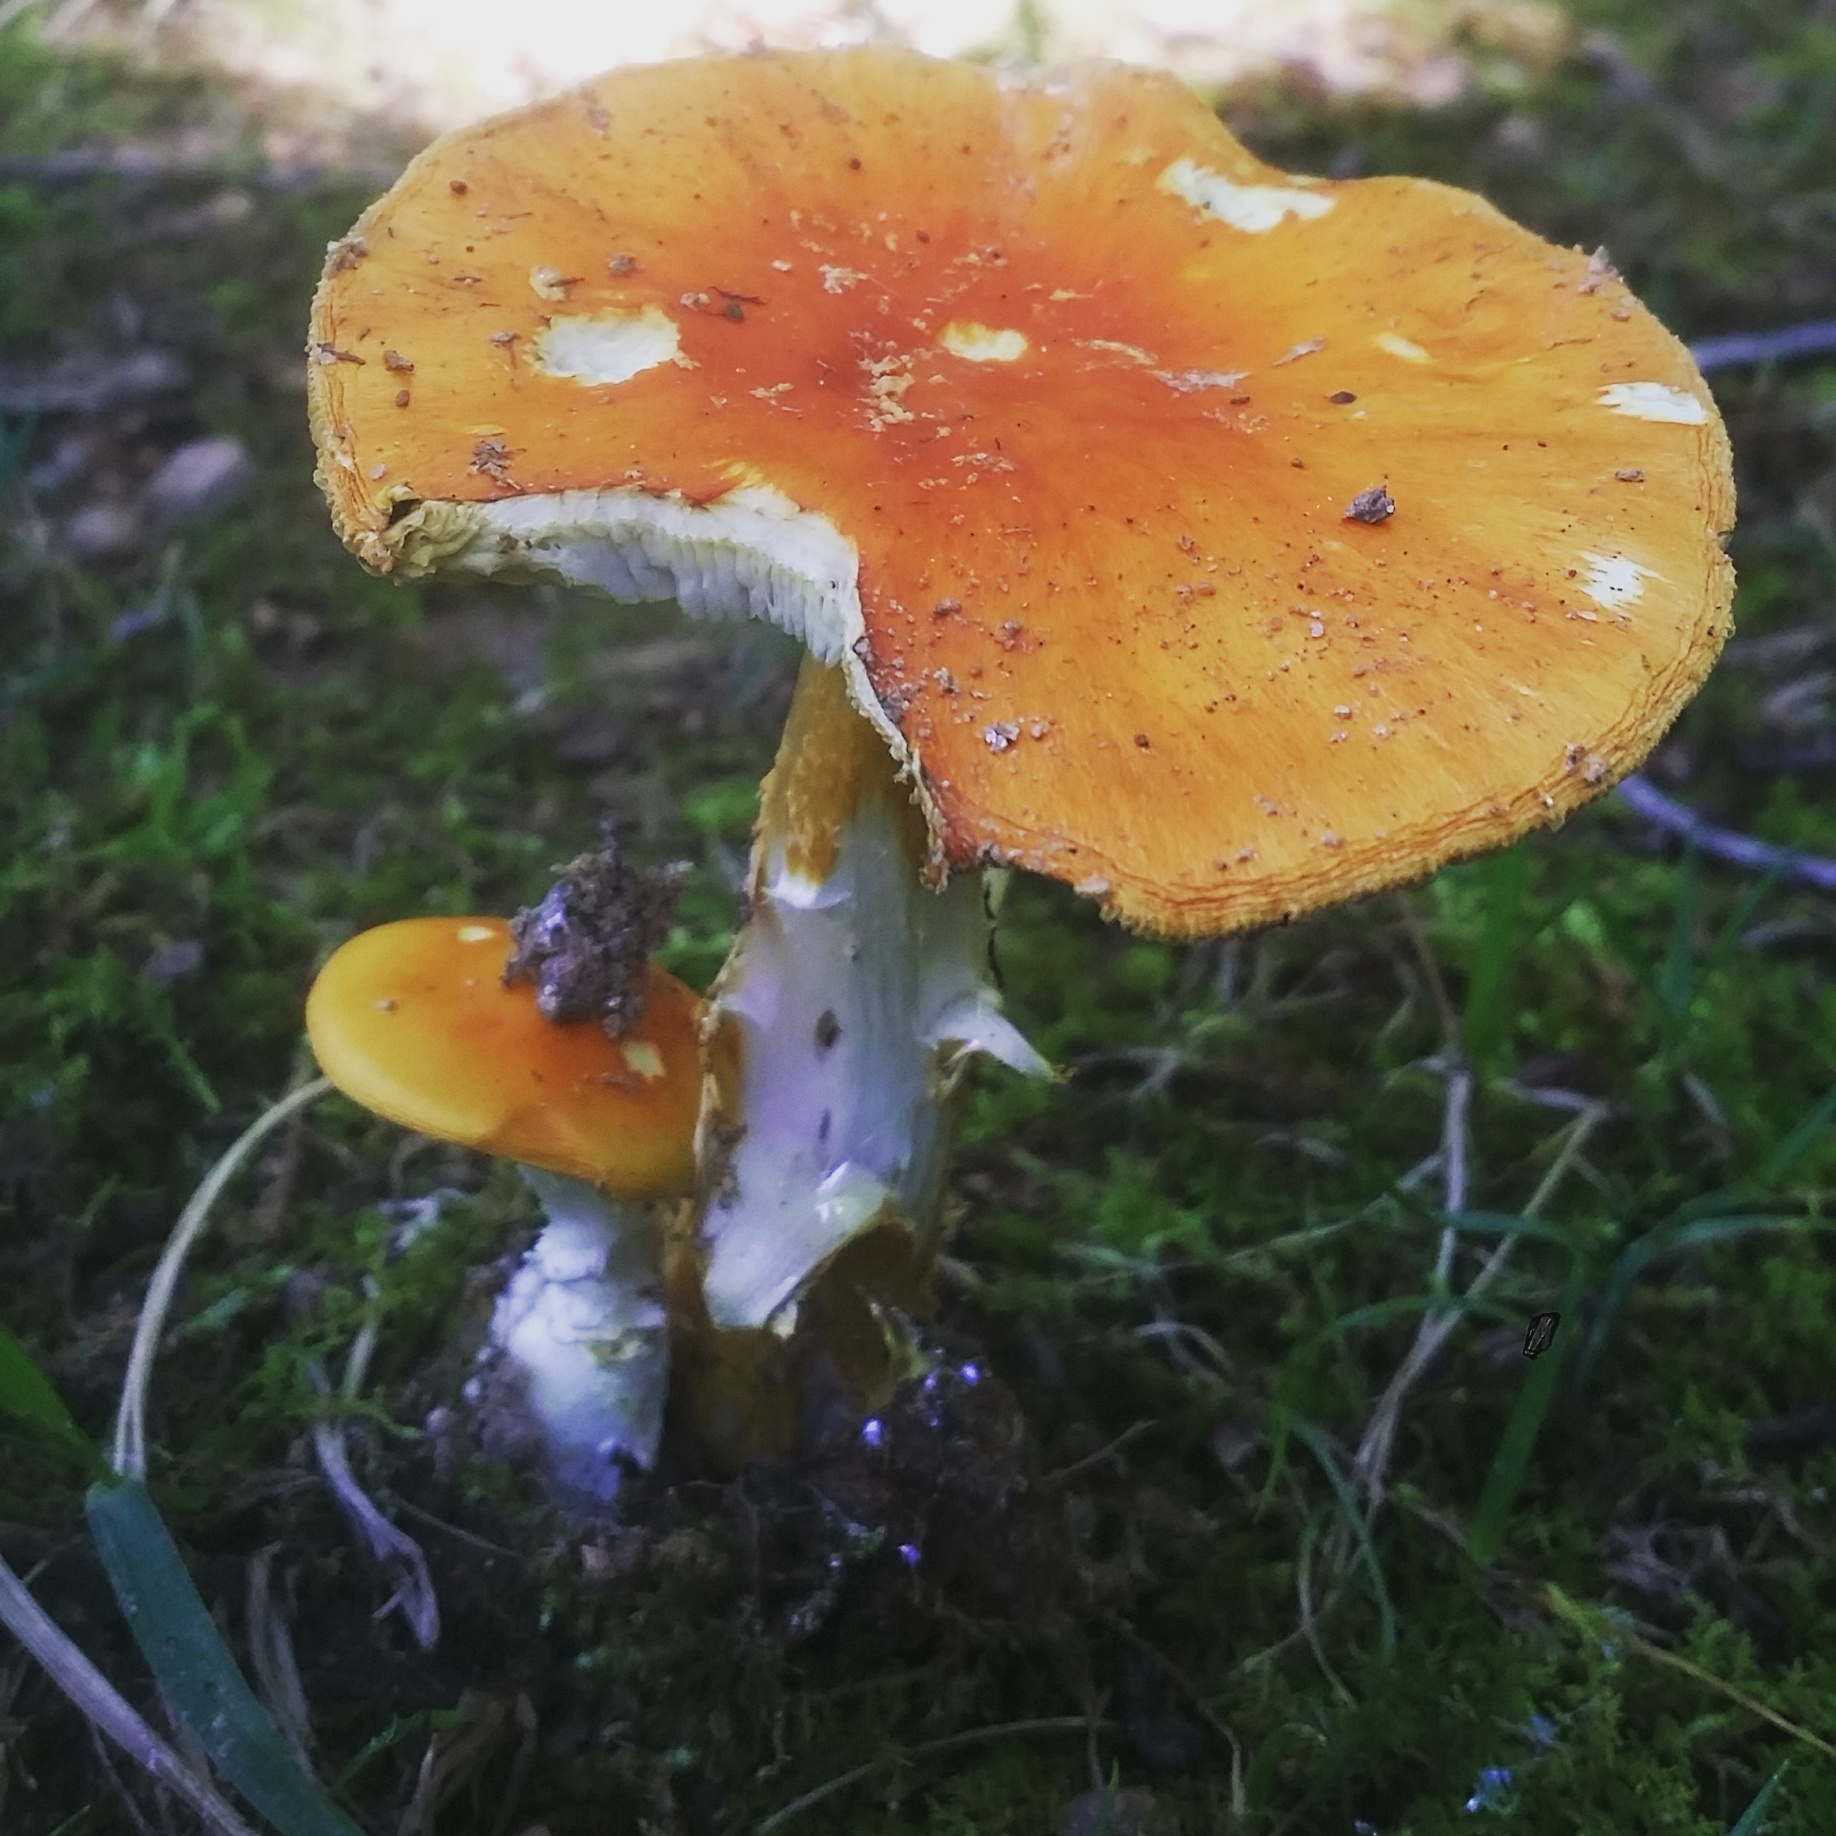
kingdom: Fungi
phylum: Basidiomycota
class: Agaricomycetes
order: Agaricales
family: Amanitaceae
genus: Amanita
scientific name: Amanita flavoconia
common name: Yellow patches
